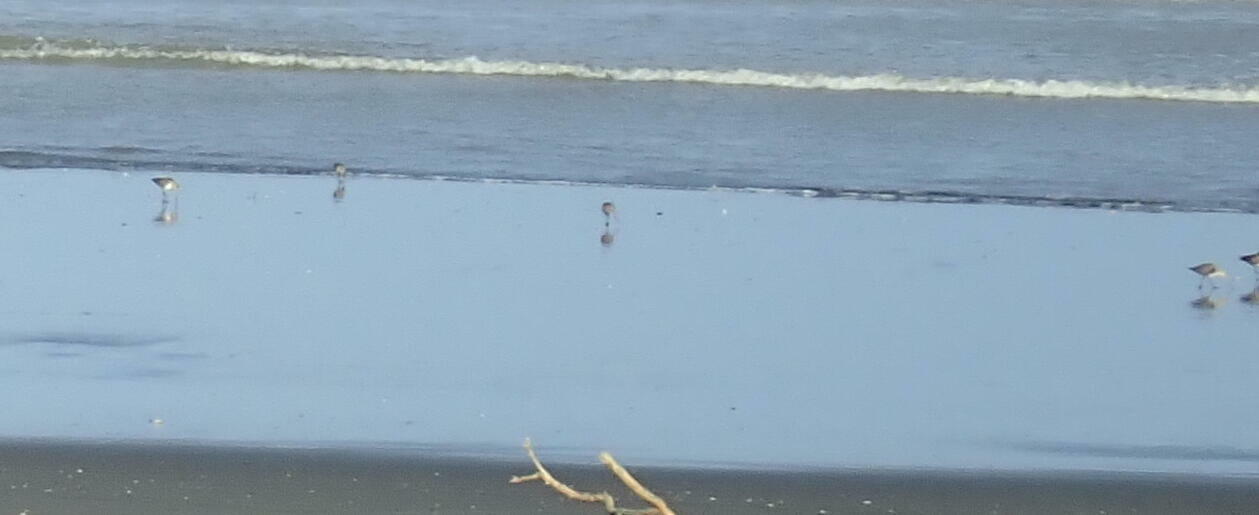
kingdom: Animalia
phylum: Chordata
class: Aves
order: Charadriiformes
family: Scolopacidae
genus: Limosa
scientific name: Limosa lapponica
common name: Bar-tailed godwit
